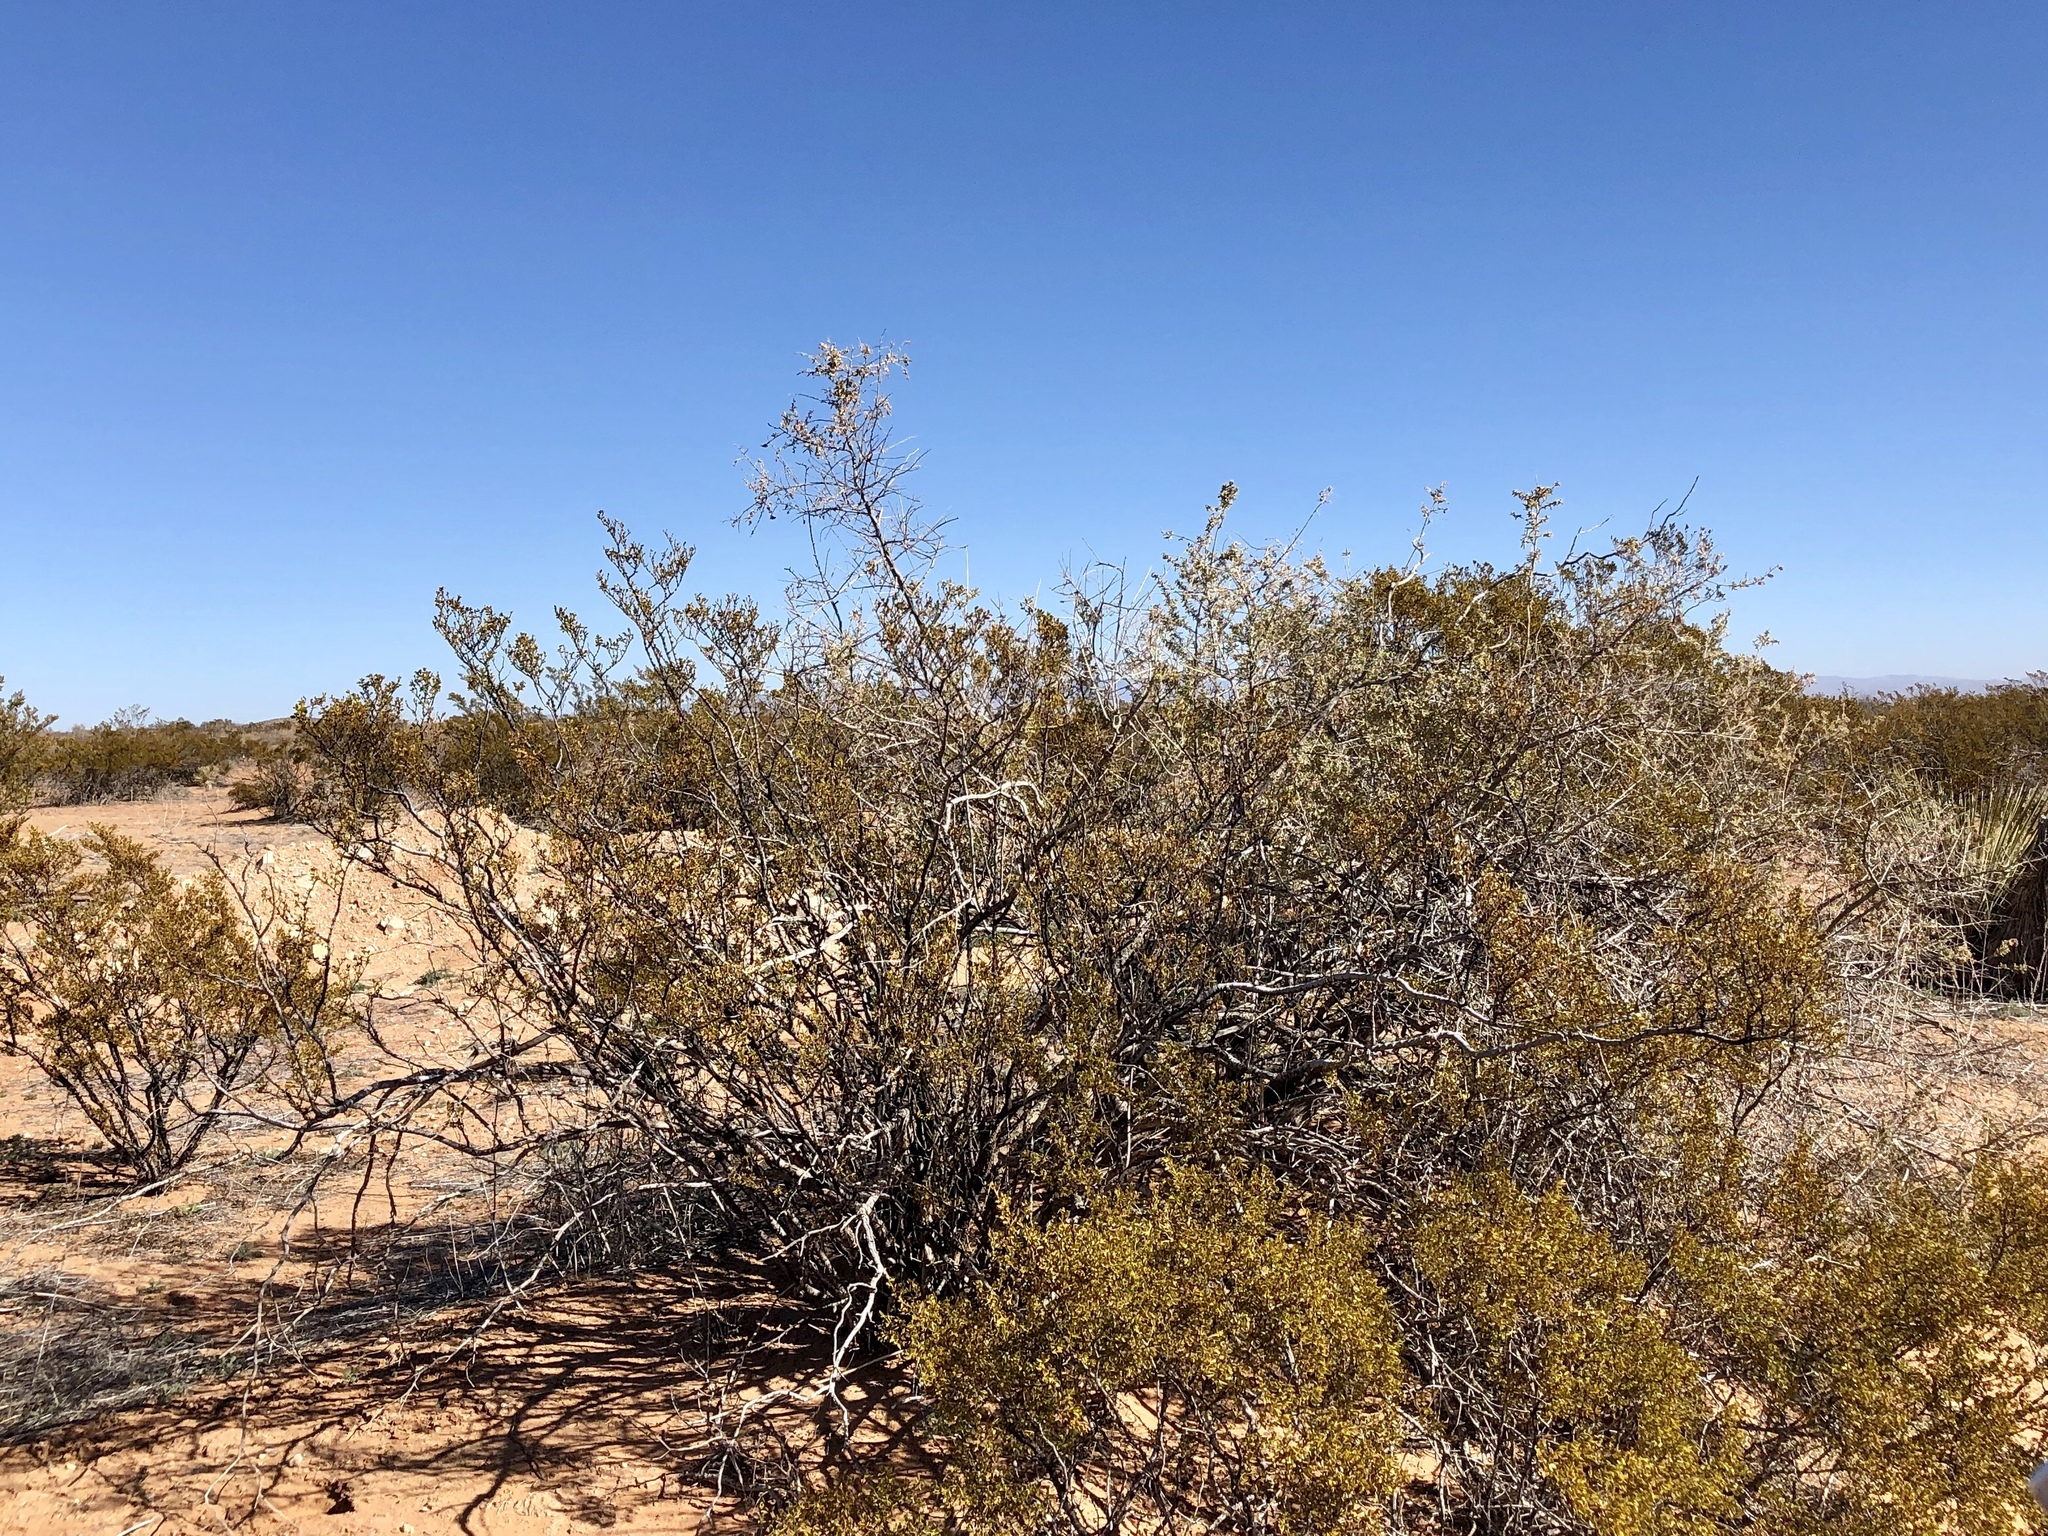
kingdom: Plantae
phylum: Tracheophyta
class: Magnoliopsida
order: Zygophyllales
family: Zygophyllaceae
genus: Larrea
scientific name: Larrea tridentata
